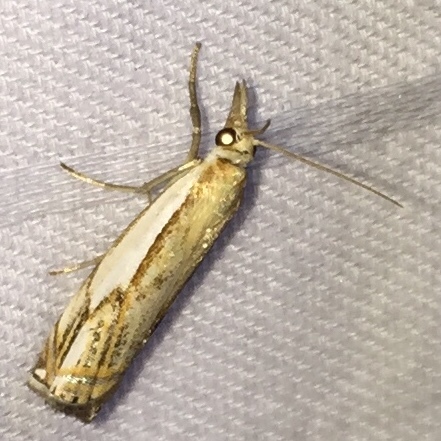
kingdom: Animalia
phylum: Arthropoda
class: Insecta
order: Lepidoptera
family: Crambidae
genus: Crambus
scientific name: Crambus agitatellus
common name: Double-banded grass-veneer
